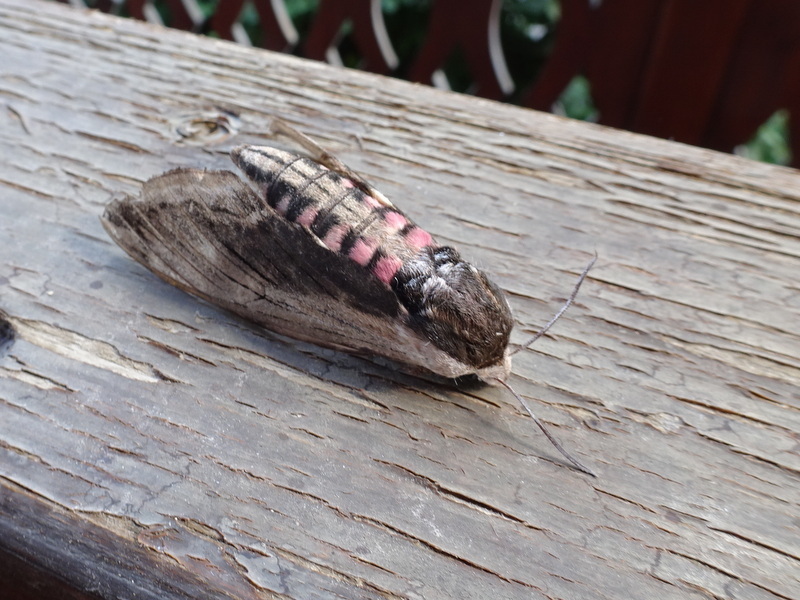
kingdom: Animalia
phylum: Arthropoda
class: Insecta
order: Lepidoptera
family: Sphingidae
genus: Sphinx
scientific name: Sphinx ligustri
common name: Privet hawk-moth
